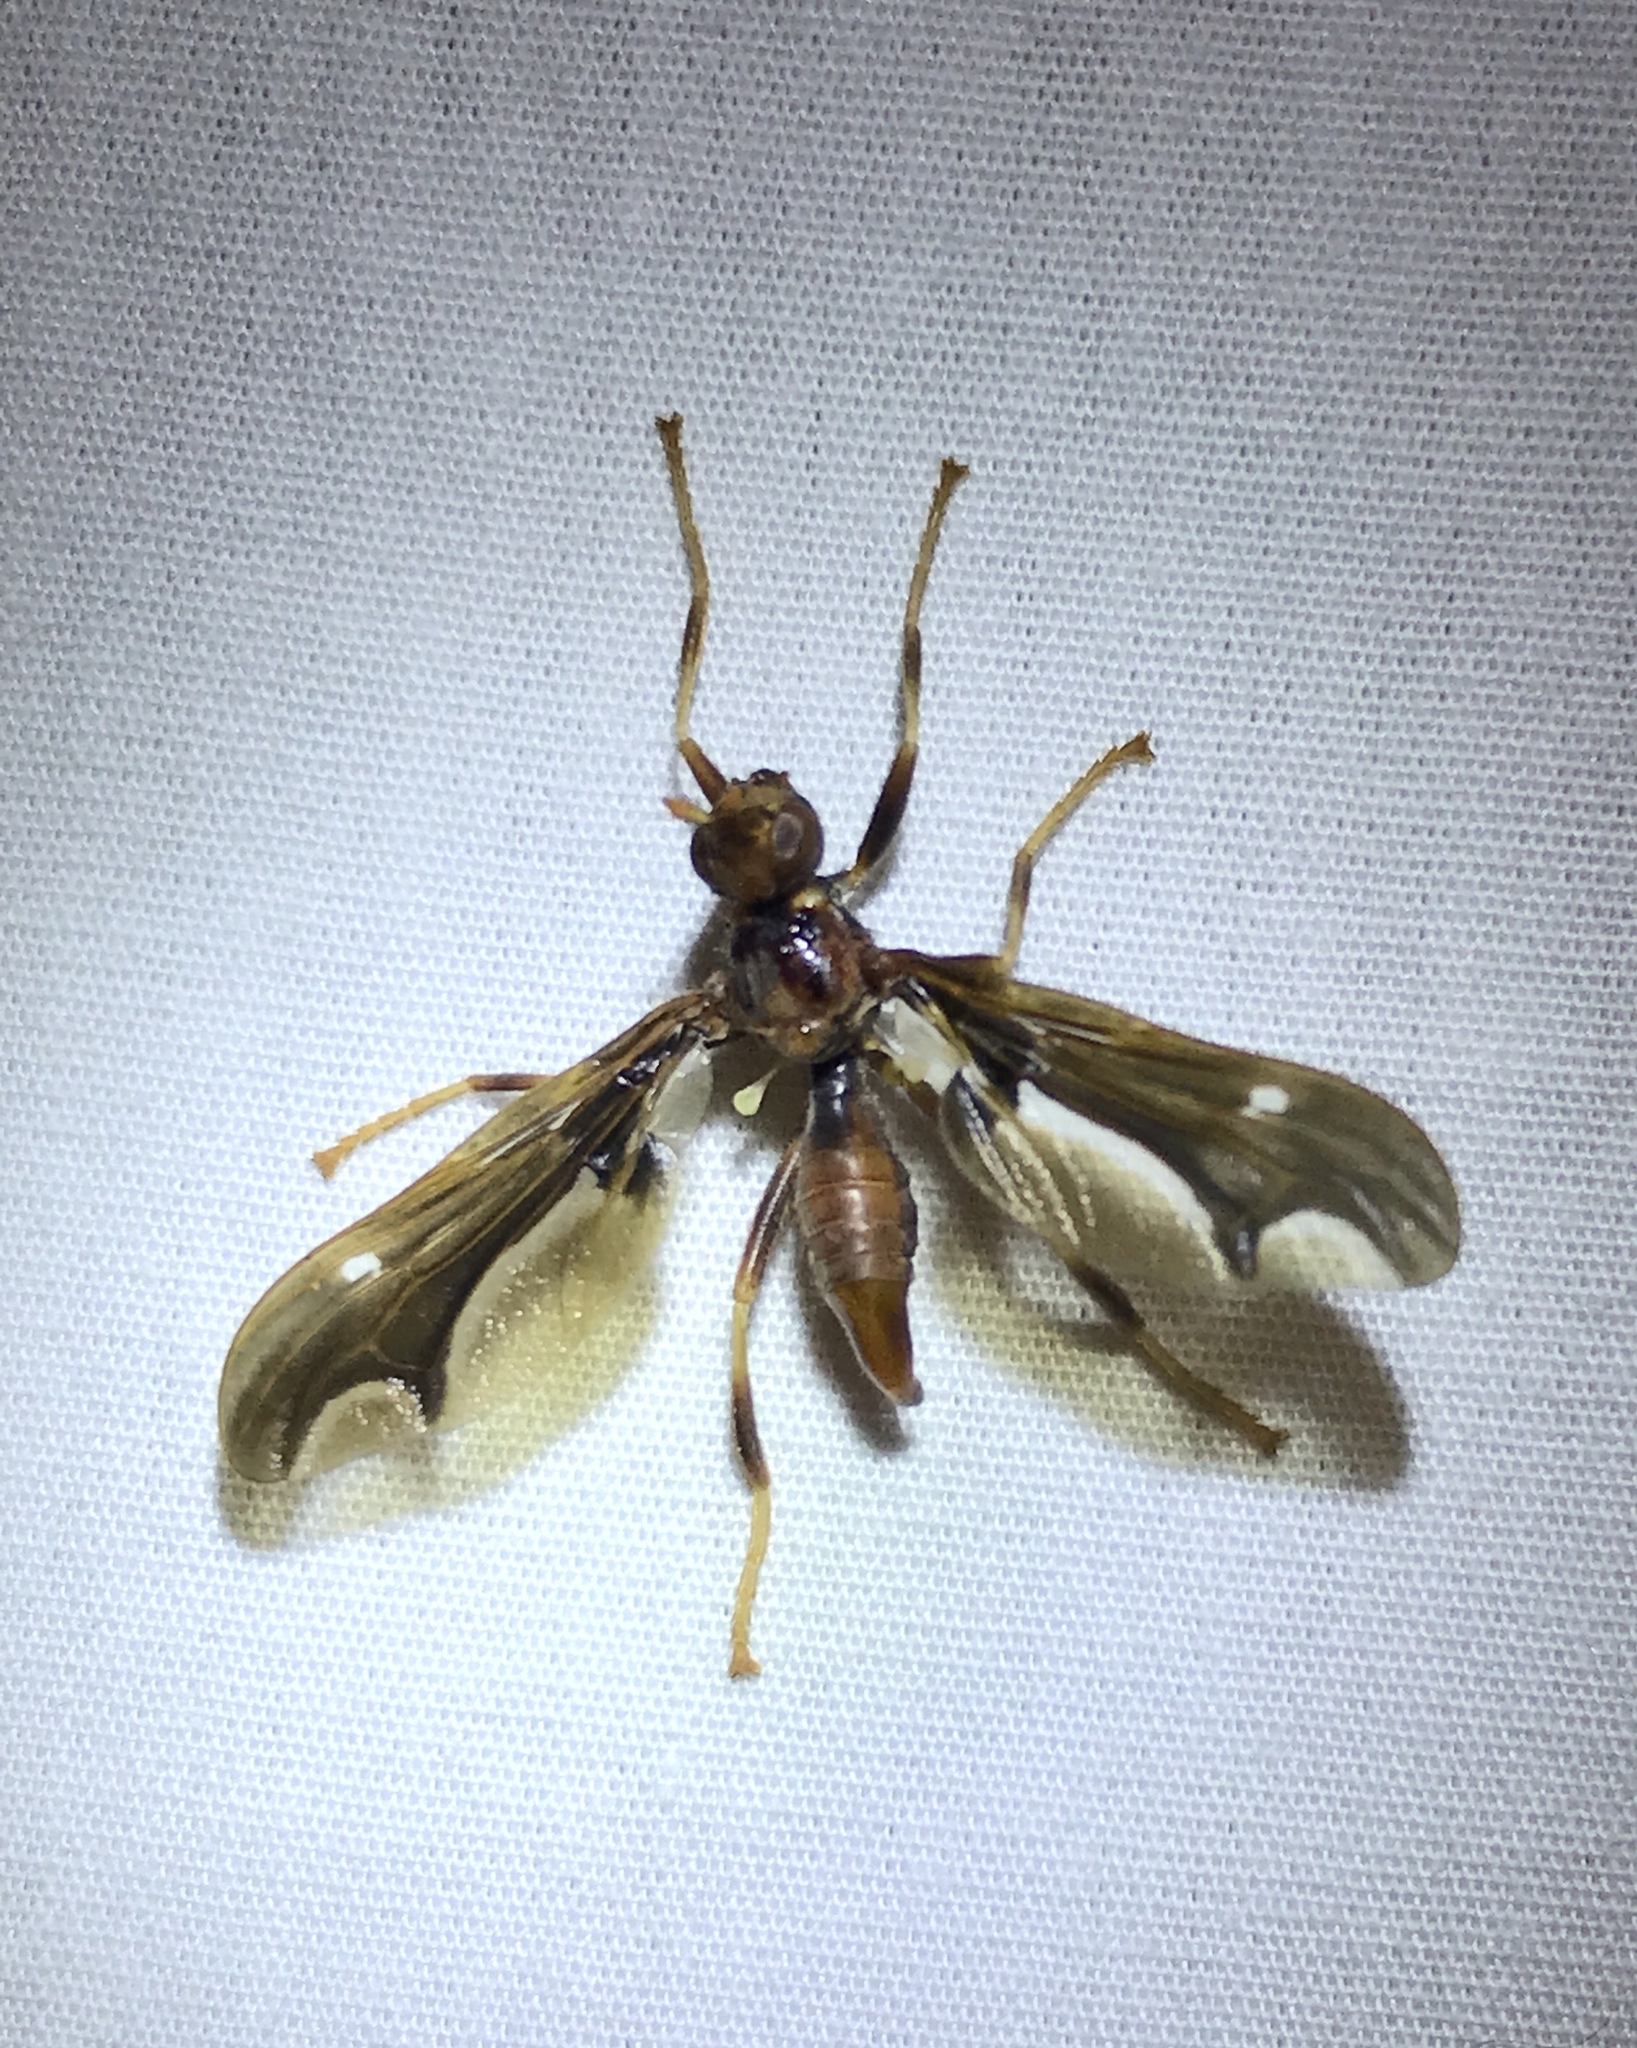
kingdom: Animalia
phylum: Arthropoda
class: Insecta
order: Diptera
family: Pyrgotidae
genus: Pyrgota
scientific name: Pyrgota undata
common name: Waved light fly
